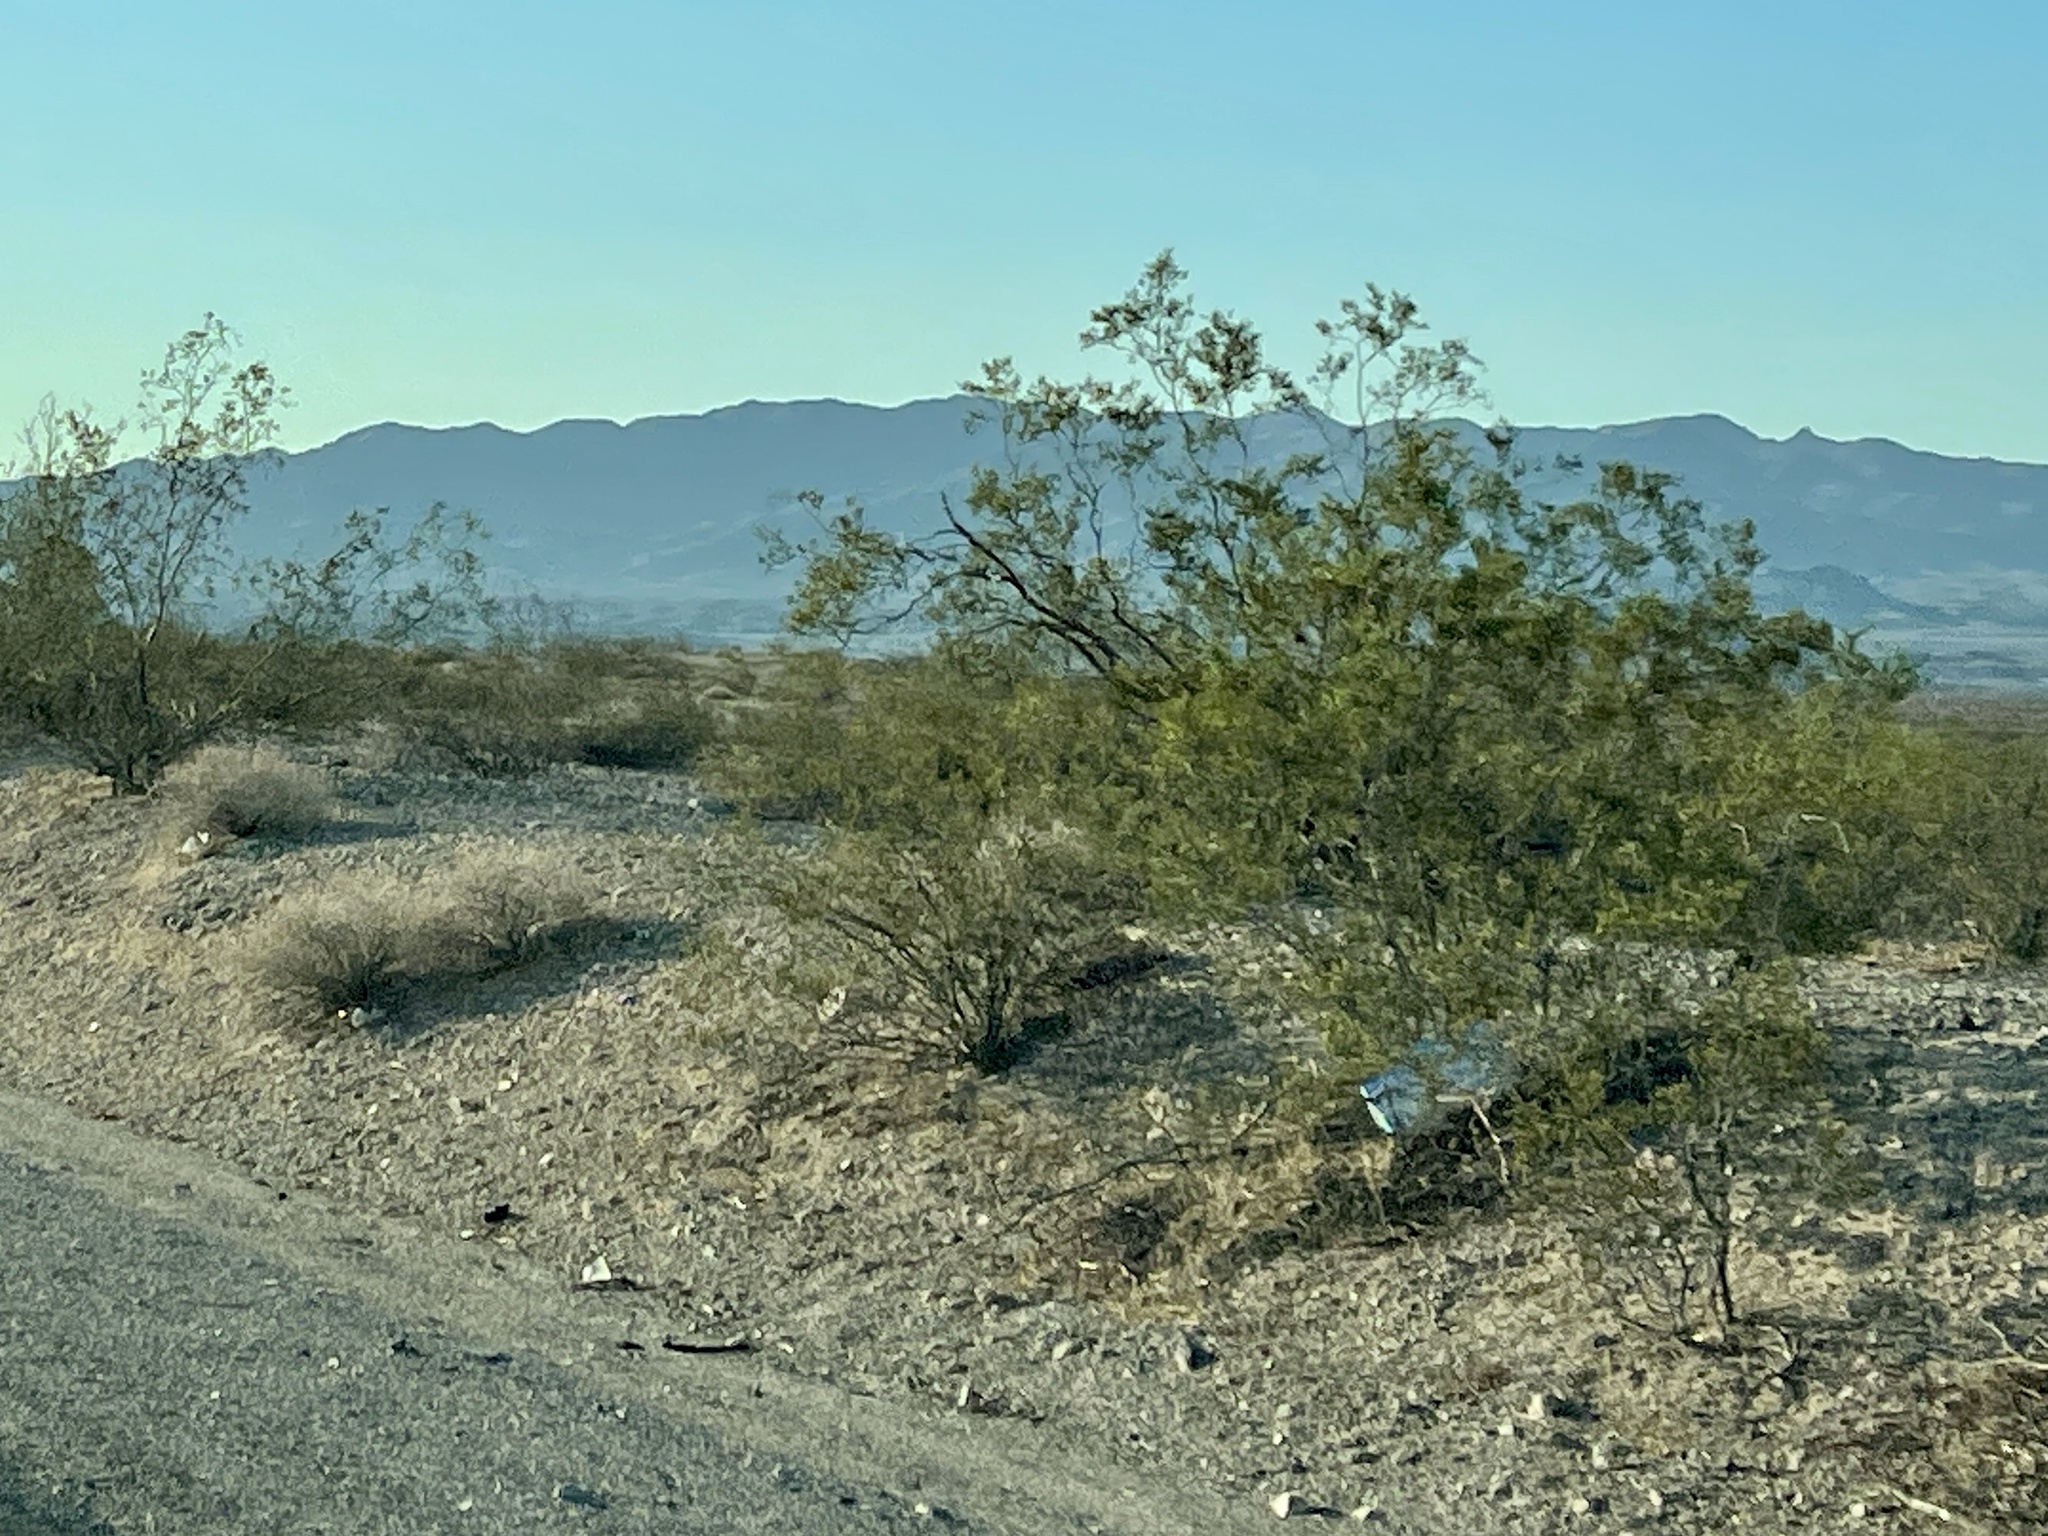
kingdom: Plantae
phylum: Tracheophyta
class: Magnoliopsida
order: Zygophyllales
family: Zygophyllaceae
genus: Larrea
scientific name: Larrea tridentata
